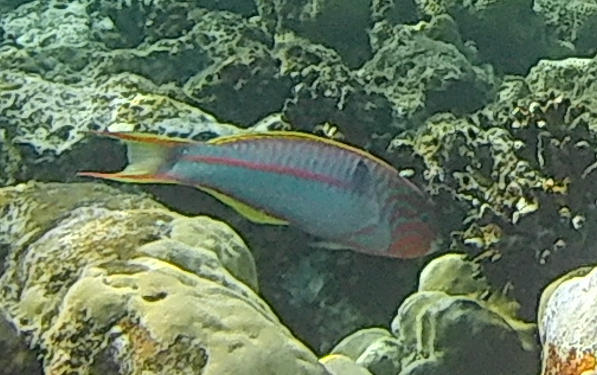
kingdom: Animalia
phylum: Chordata
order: Perciformes
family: Labridae
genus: Thalassoma
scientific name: Thalassoma rueppellii
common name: Klunzinger's wrasse
